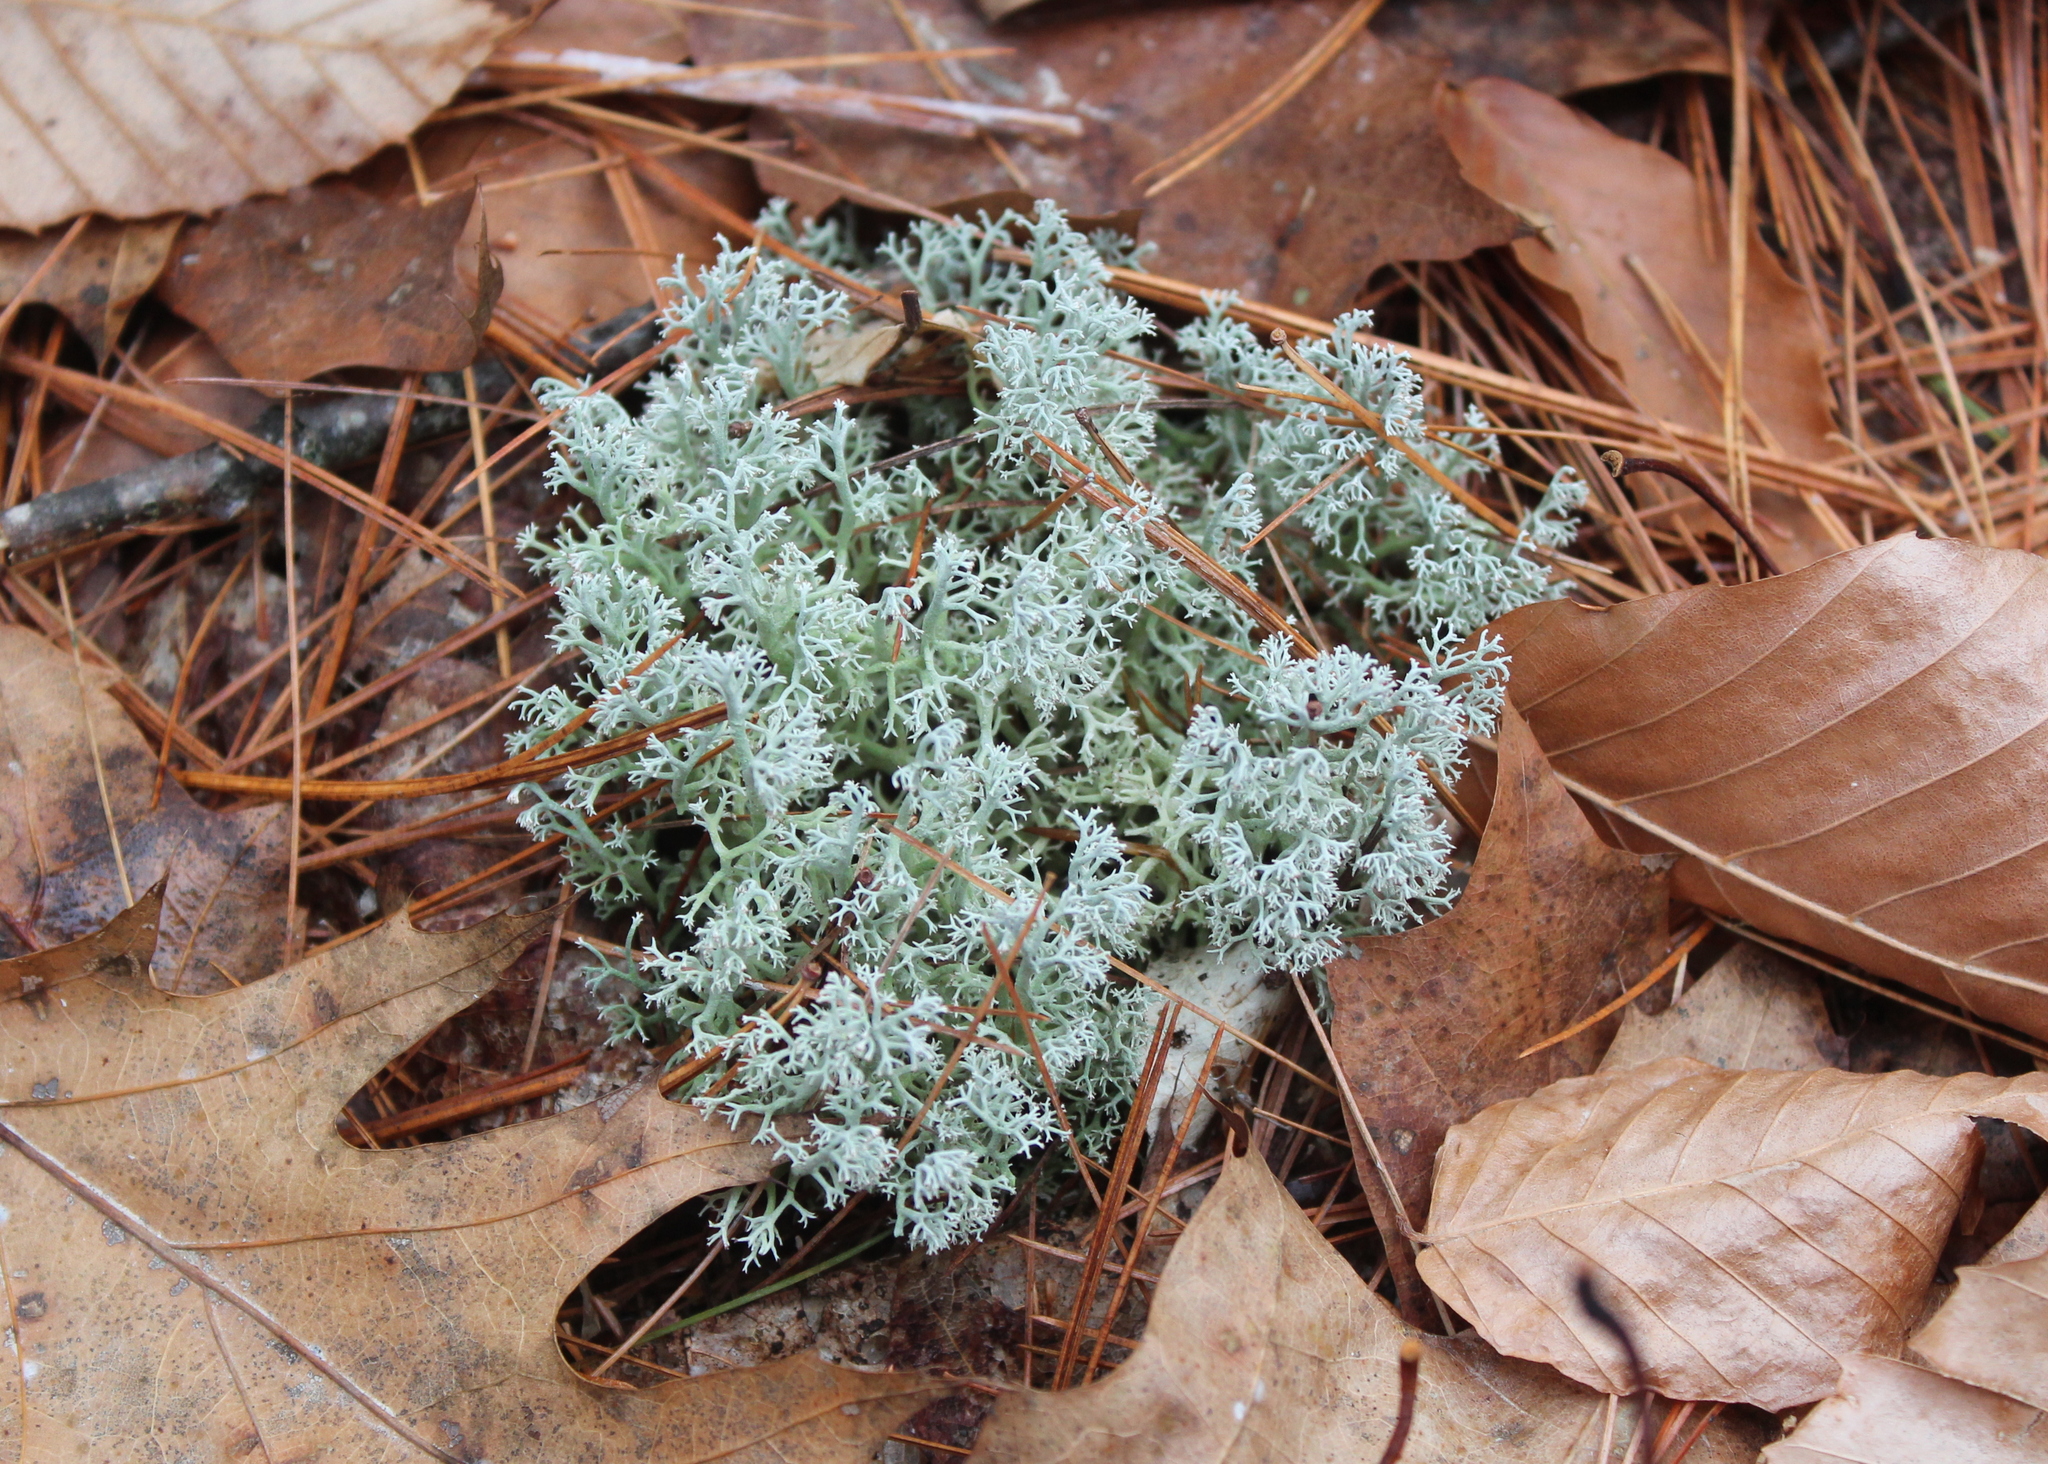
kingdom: Fungi
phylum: Ascomycota
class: Lecanoromycetes
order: Lecanorales
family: Cladoniaceae
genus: Cladonia
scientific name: Cladonia rangiferina
